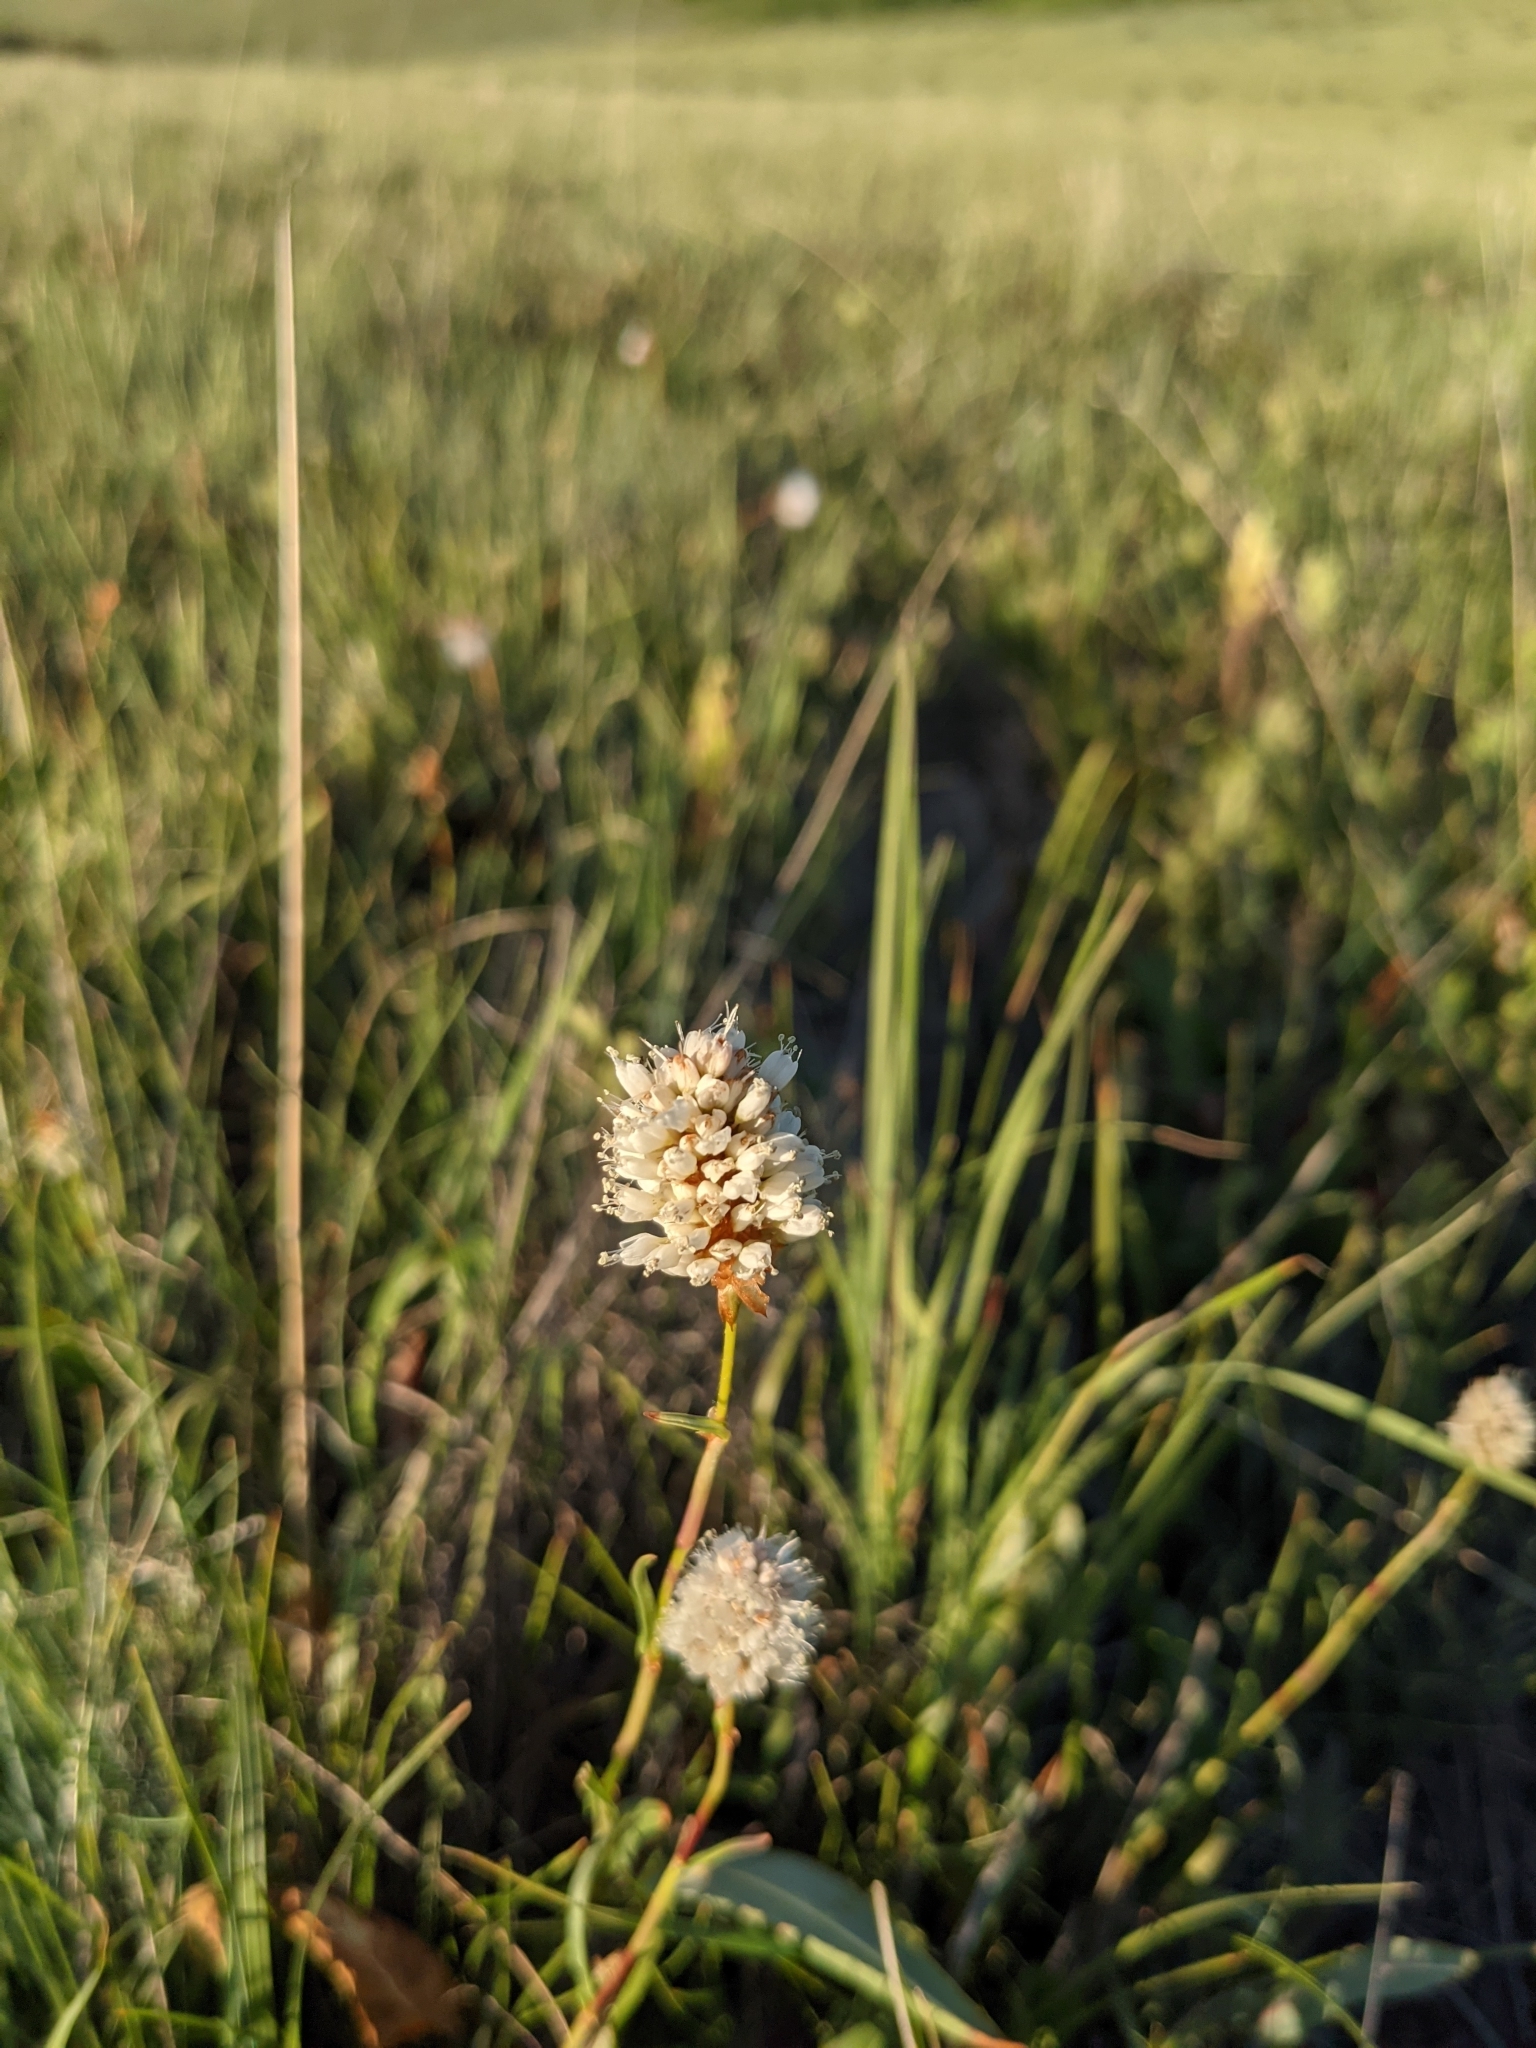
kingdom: Plantae
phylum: Tracheophyta
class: Magnoliopsida
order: Caryophyllales
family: Polygonaceae
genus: Bistorta
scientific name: Bistorta bistortoides
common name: American bistort
